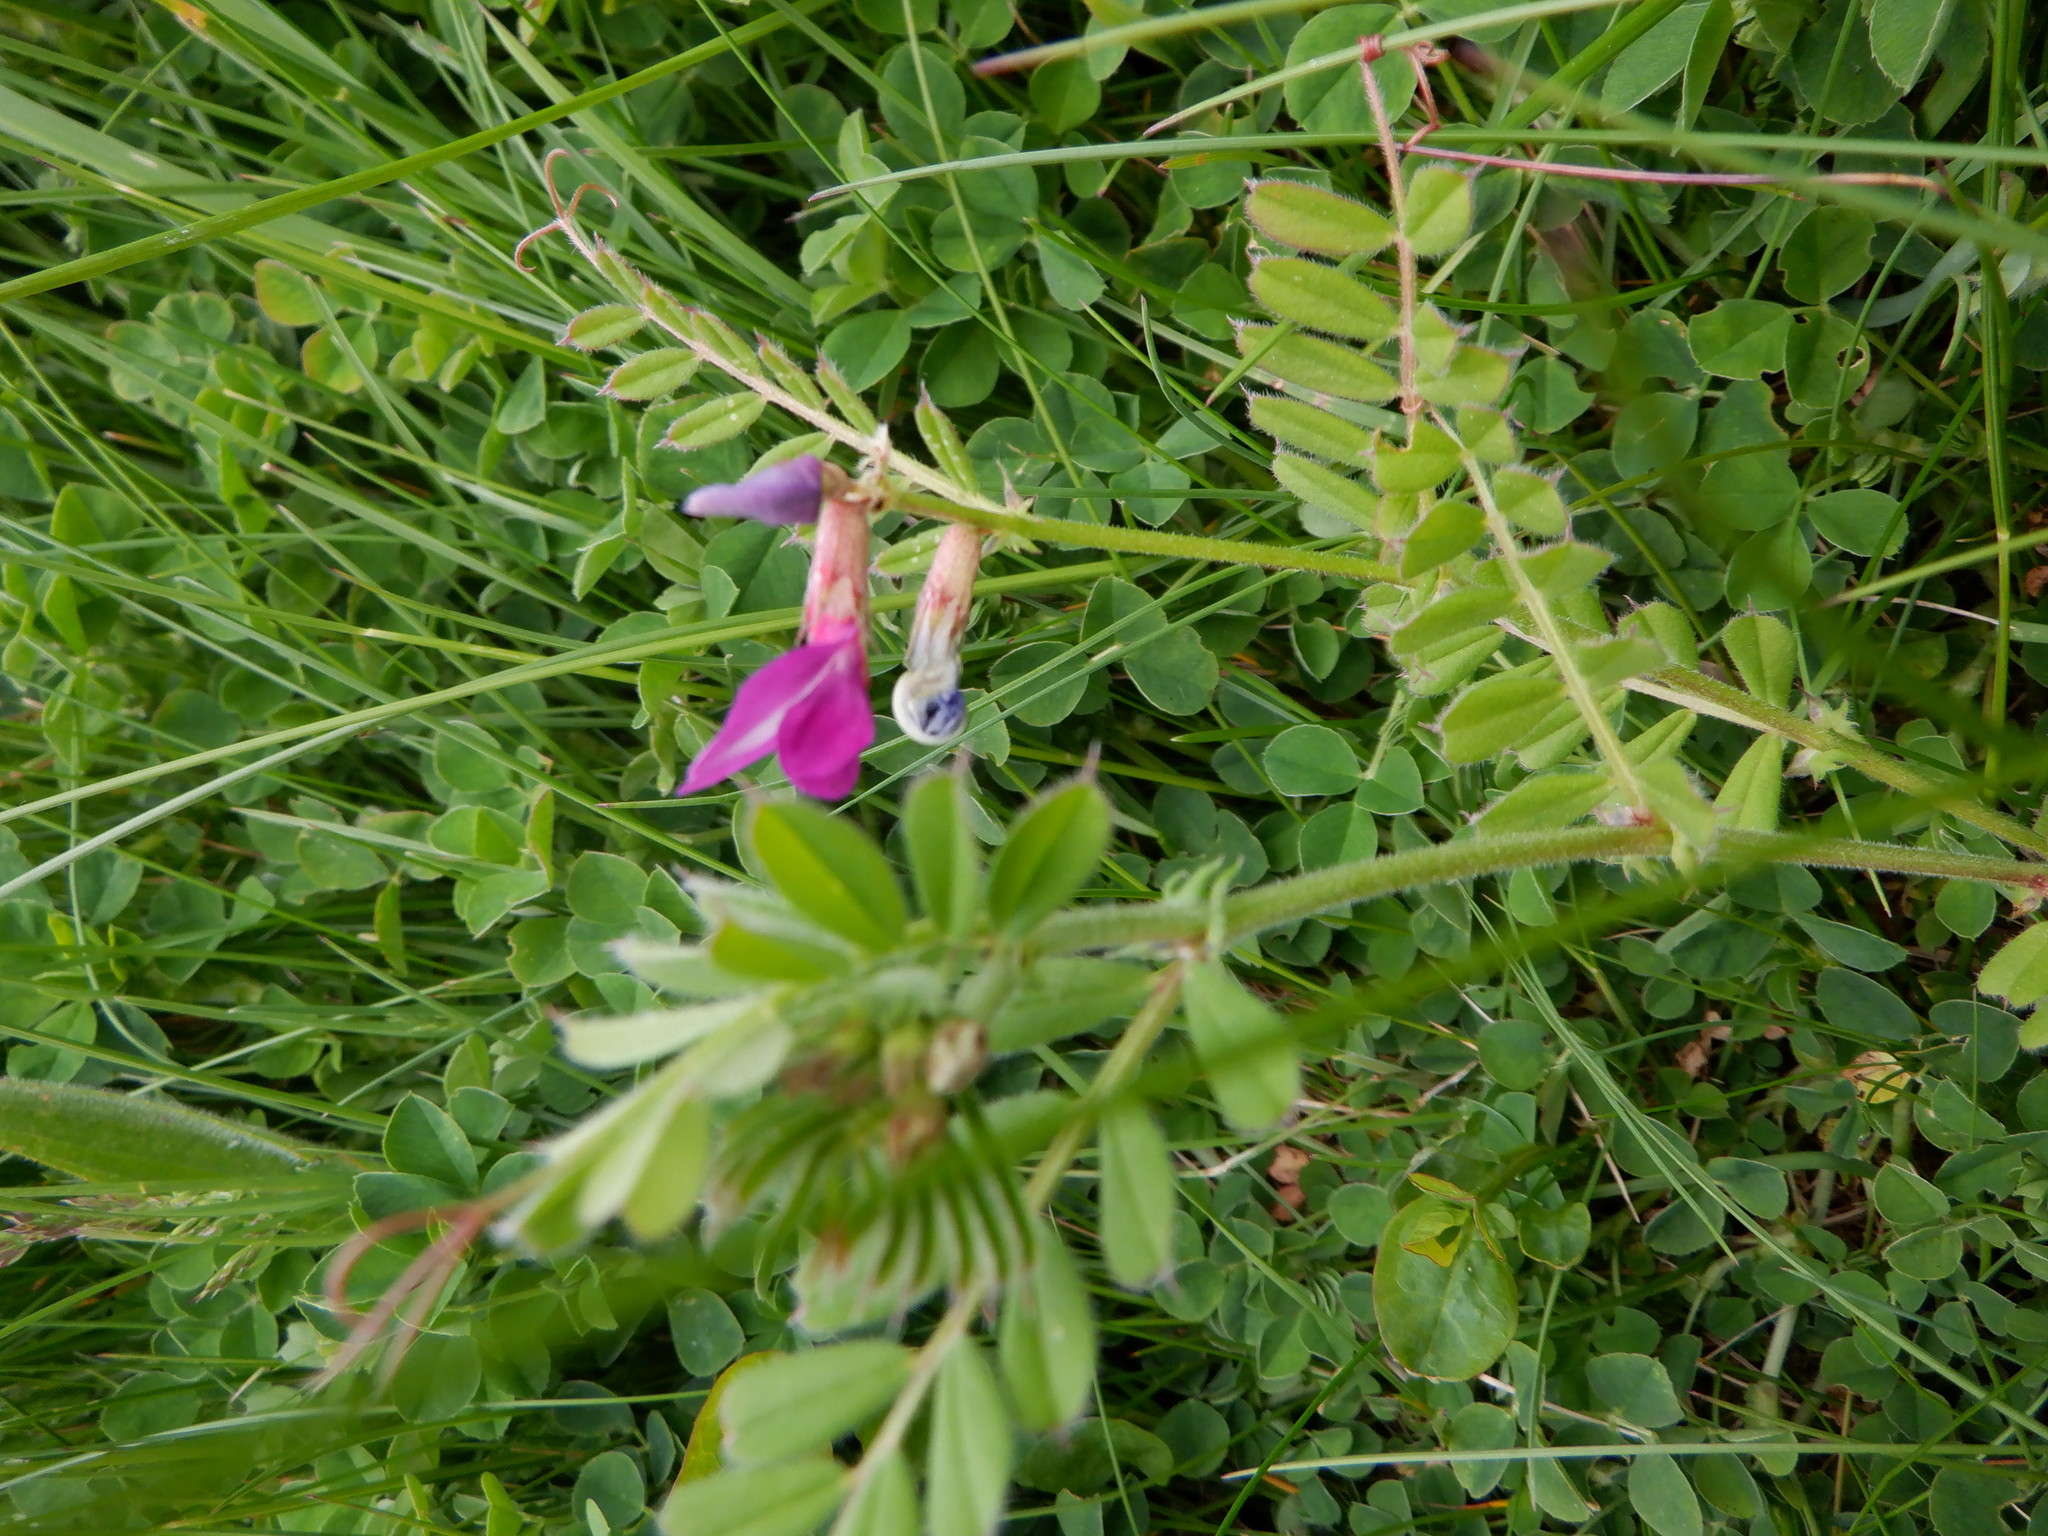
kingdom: Plantae
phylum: Tracheophyta
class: Magnoliopsida
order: Fabales
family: Fabaceae
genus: Vicia
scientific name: Vicia sativa
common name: Garden vetch
